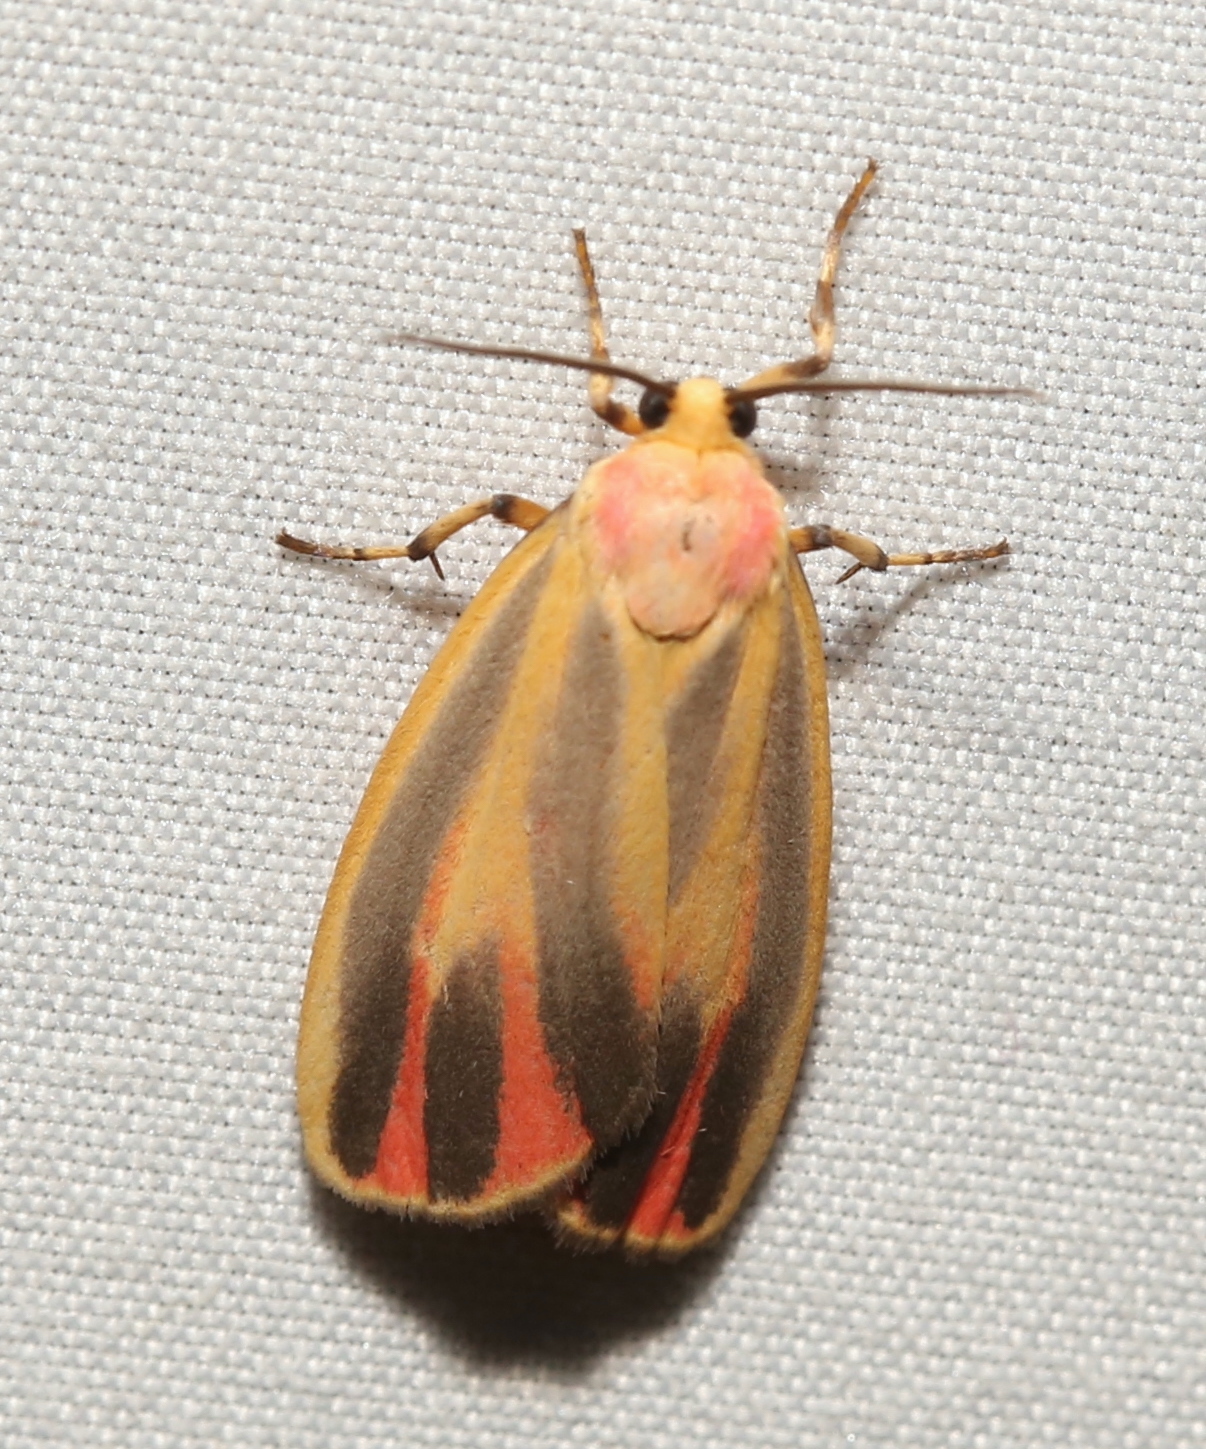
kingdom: Animalia
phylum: Arthropoda
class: Insecta
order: Lepidoptera
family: Erebidae
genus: Hypoprepia
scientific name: Hypoprepia fucosa
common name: Painted lichen moth
